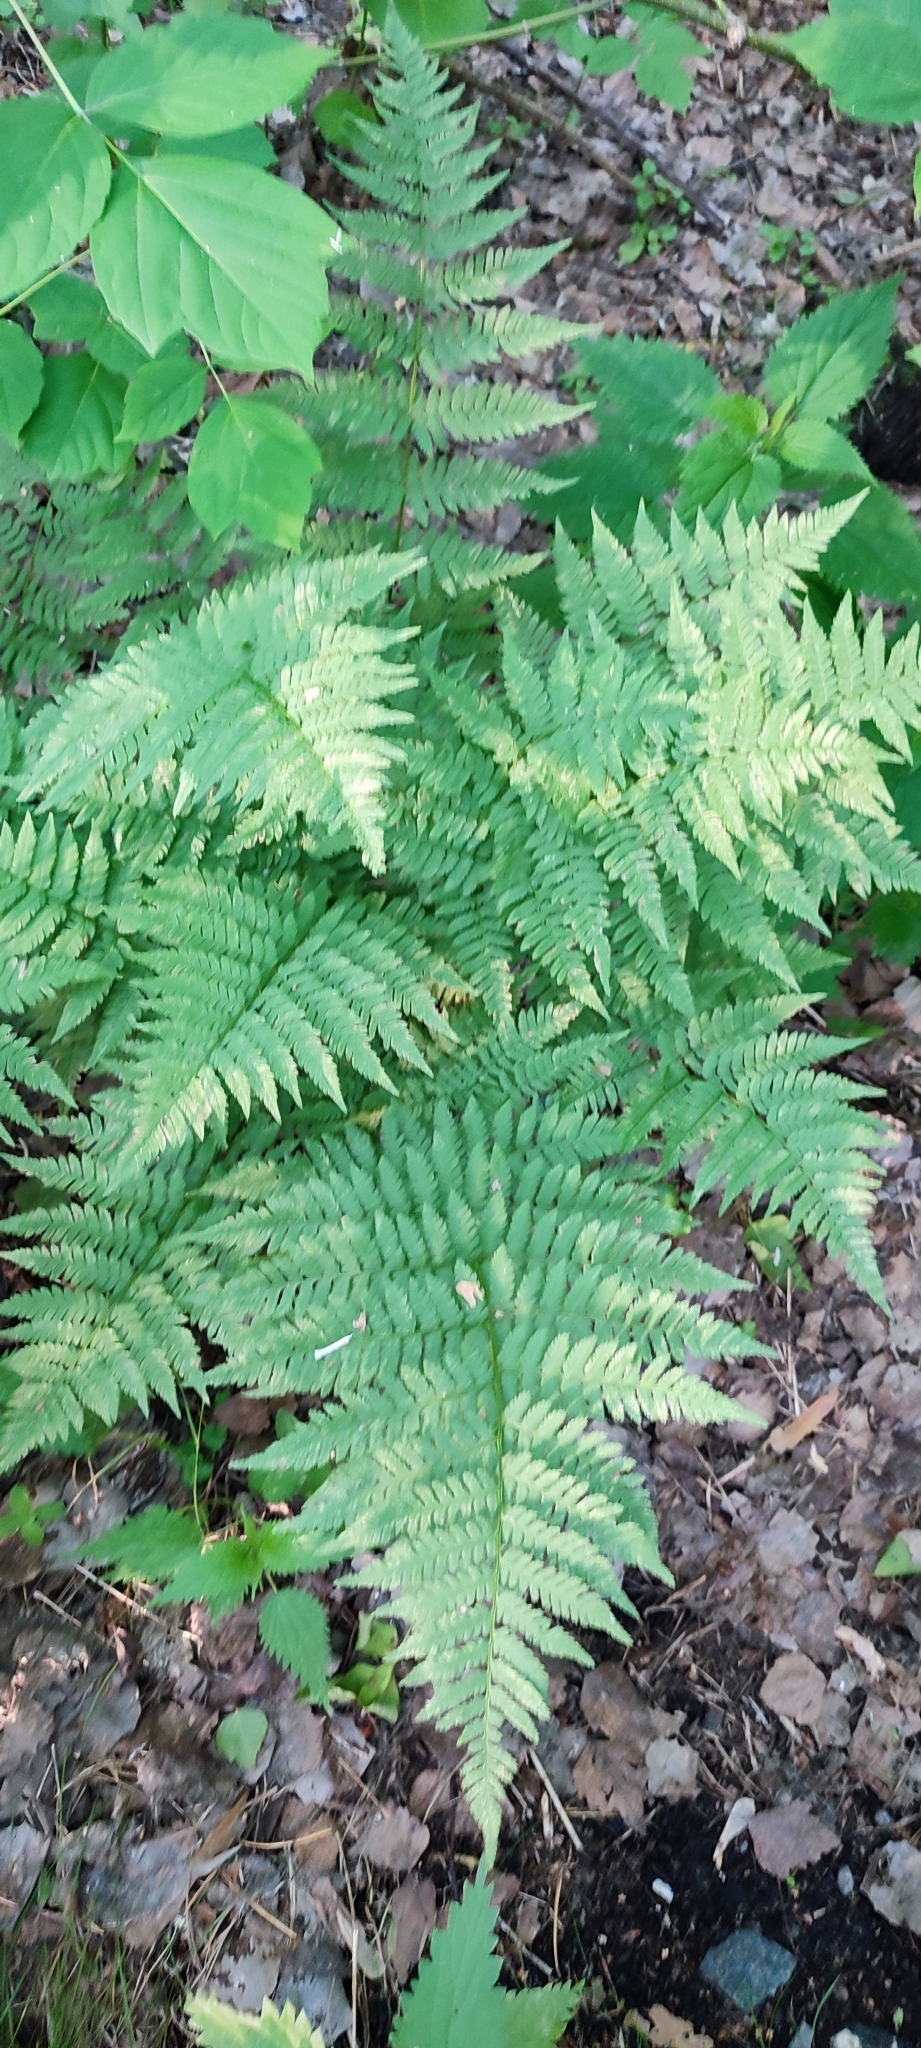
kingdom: Plantae
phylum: Tracheophyta
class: Polypodiopsida
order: Polypodiales
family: Dryopteridaceae
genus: Dryopteris
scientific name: Dryopteris carthusiana
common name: Narrow buckler-fern
